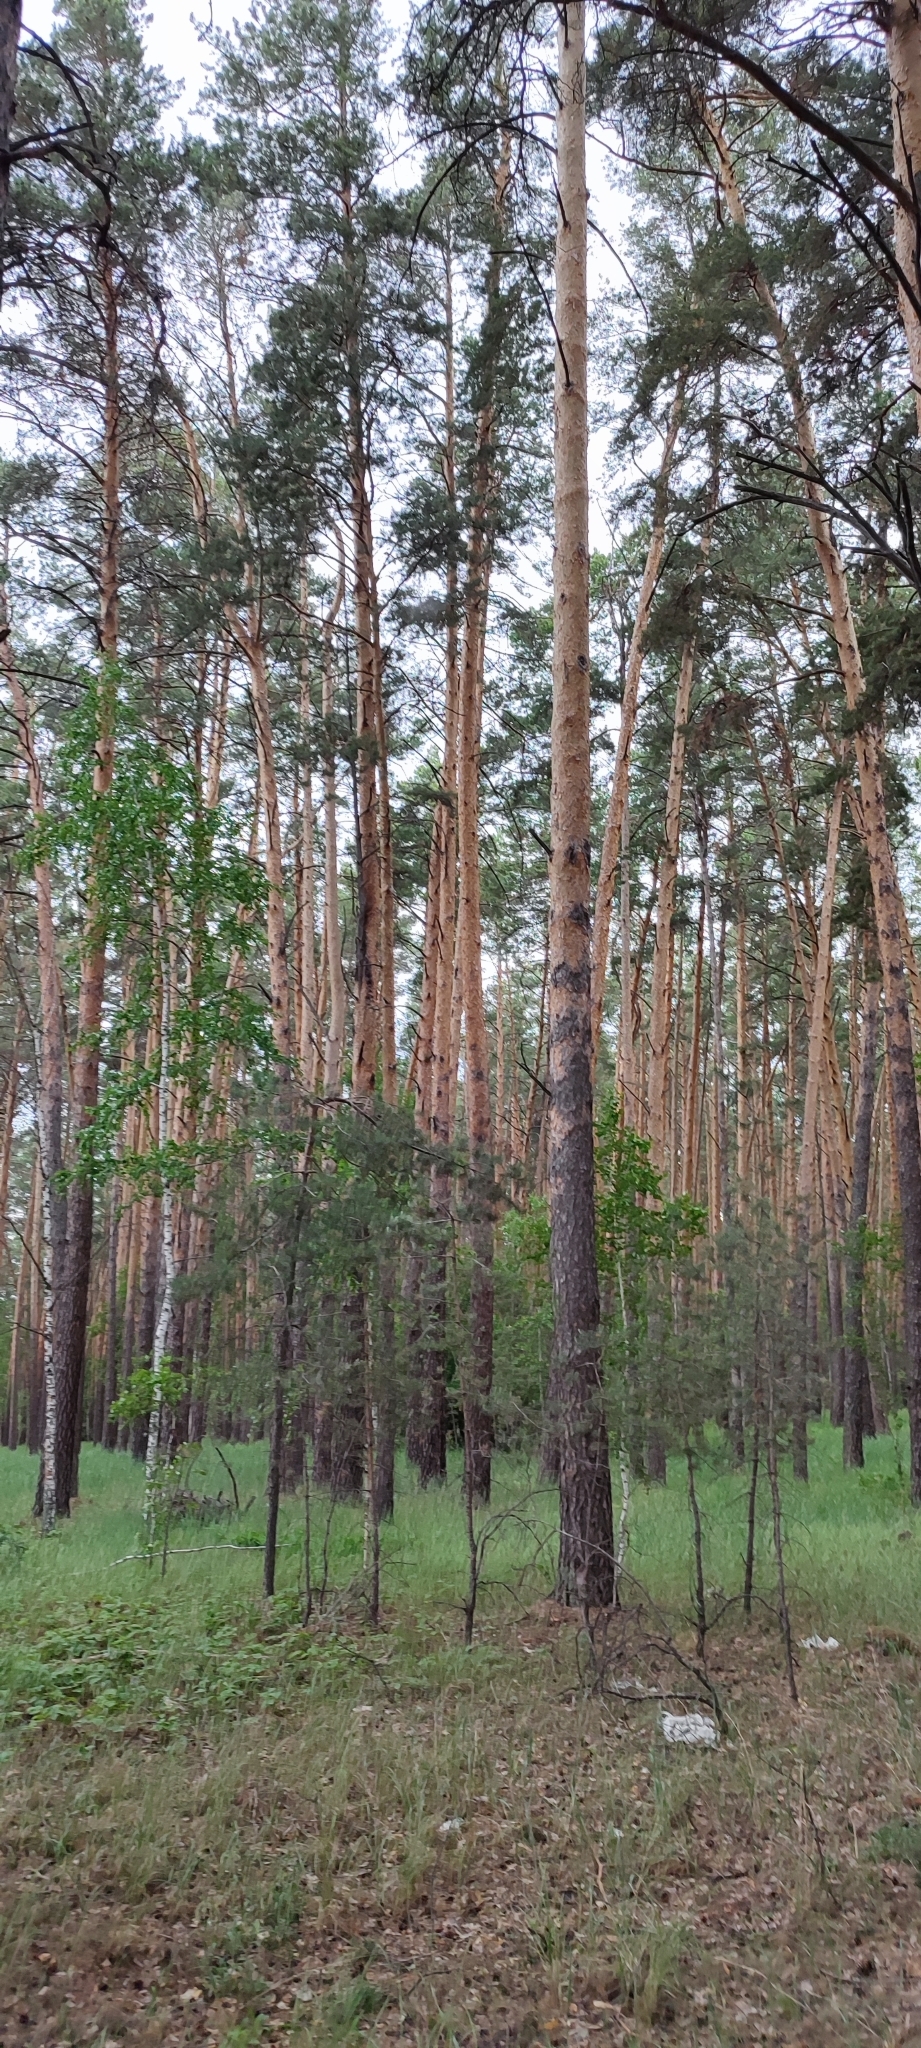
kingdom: Plantae
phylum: Tracheophyta
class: Pinopsida
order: Pinales
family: Pinaceae
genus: Pinus
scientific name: Pinus sylvestris
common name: Scots pine
